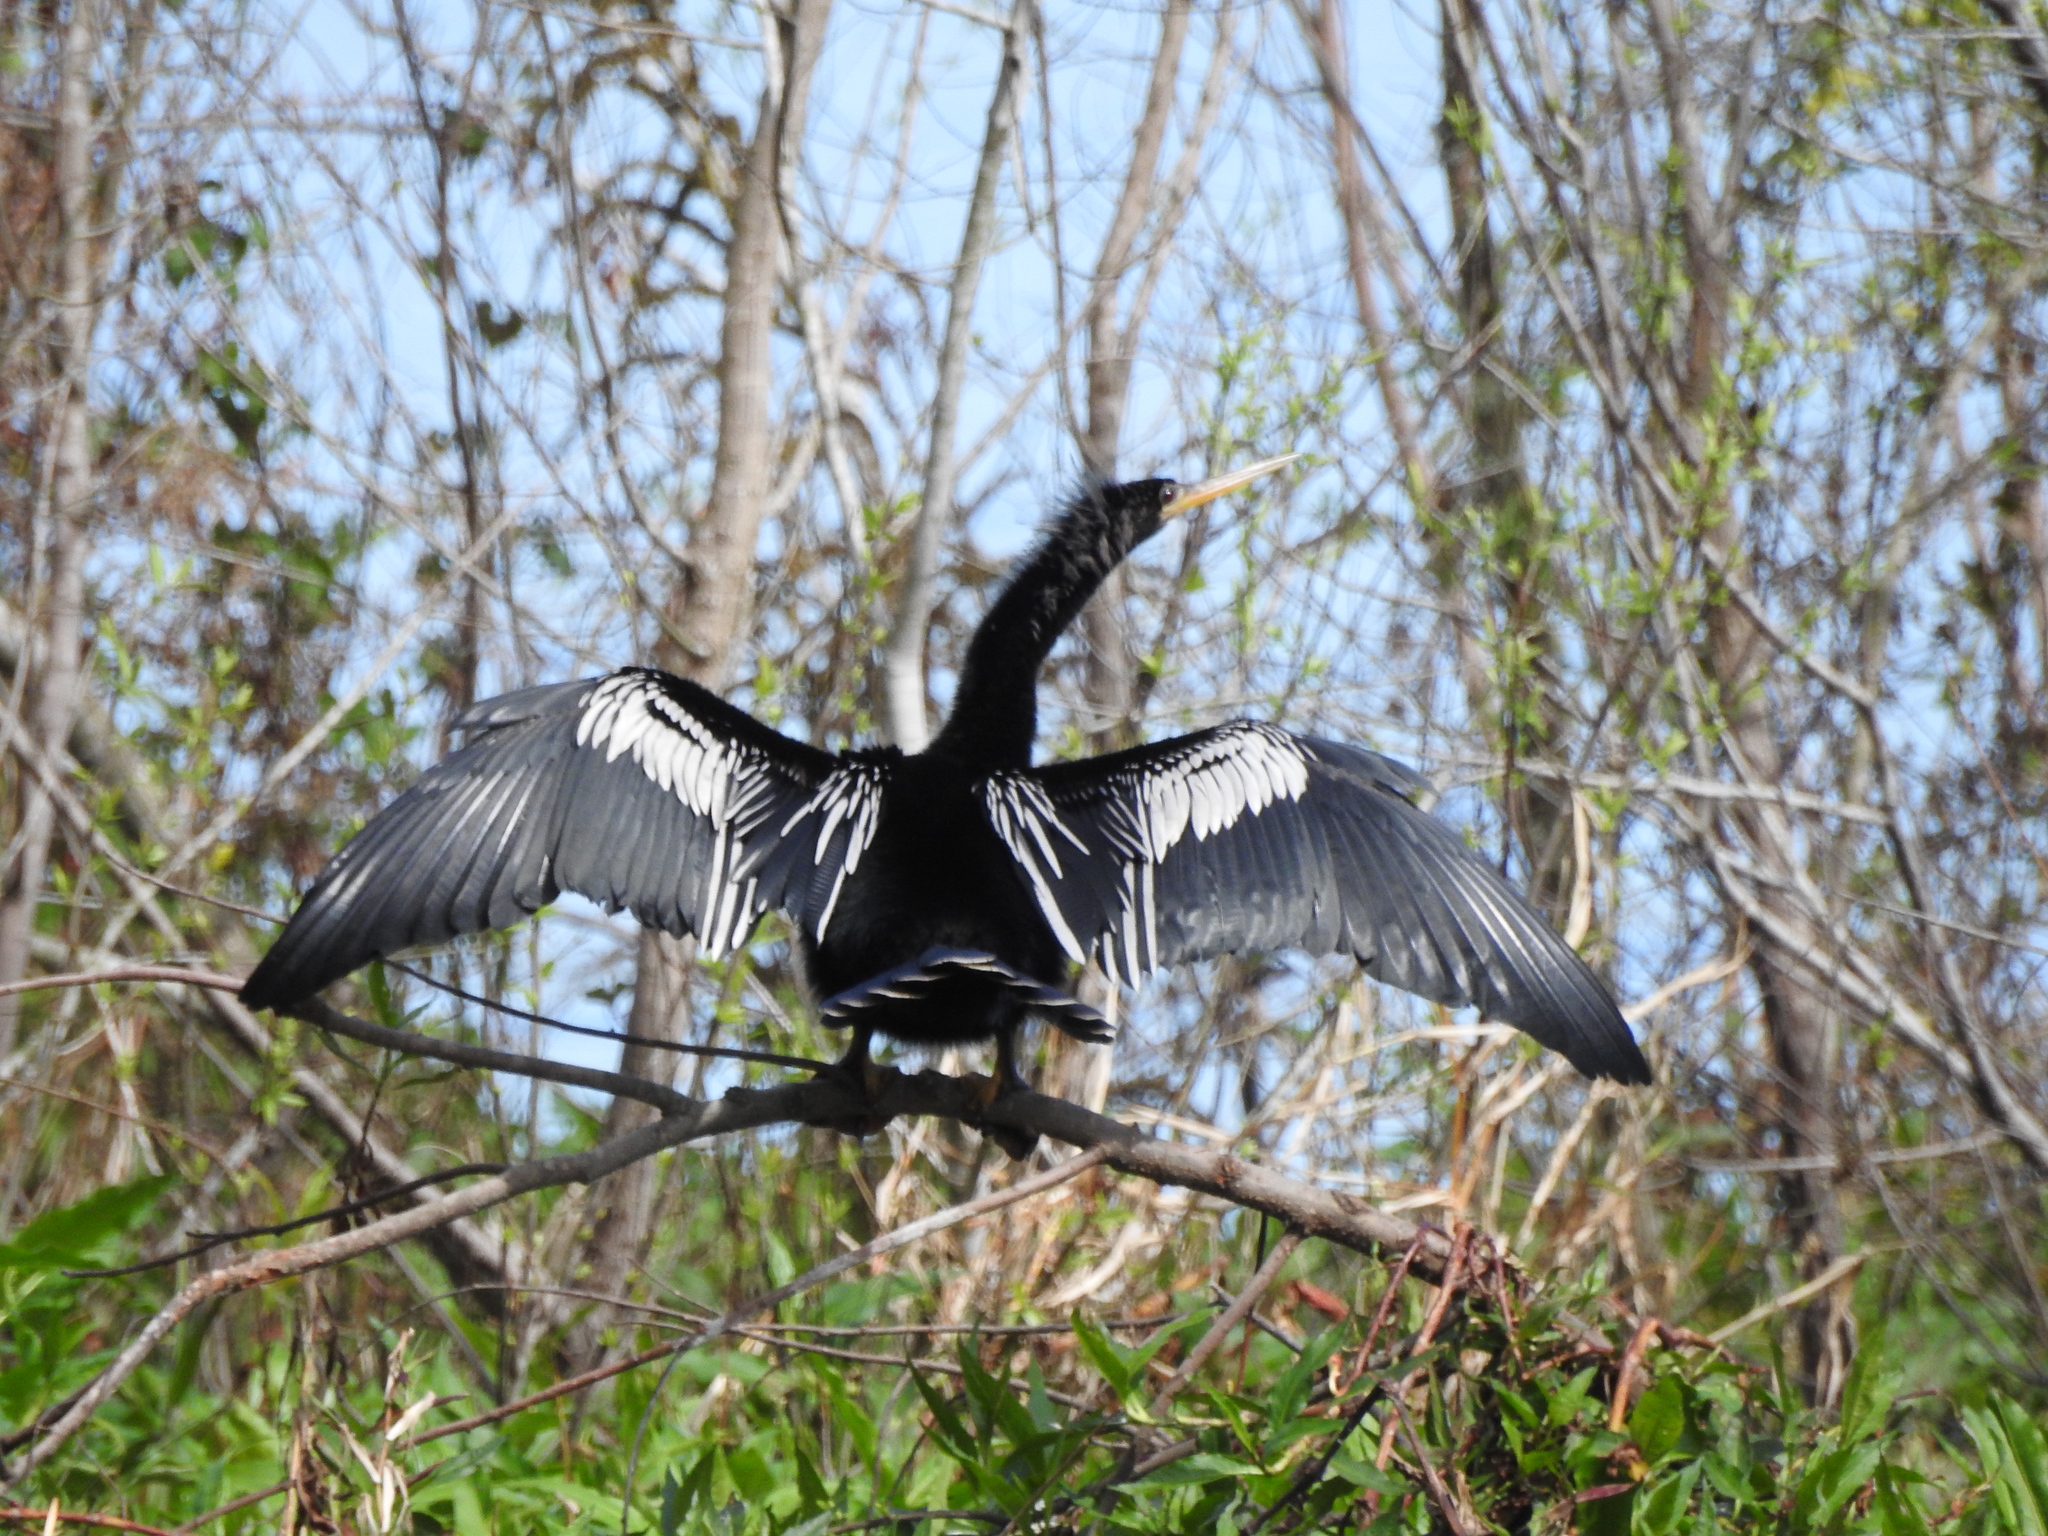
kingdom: Animalia
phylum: Chordata
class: Aves
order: Suliformes
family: Anhingidae
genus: Anhinga
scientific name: Anhinga anhinga
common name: Anhinga
